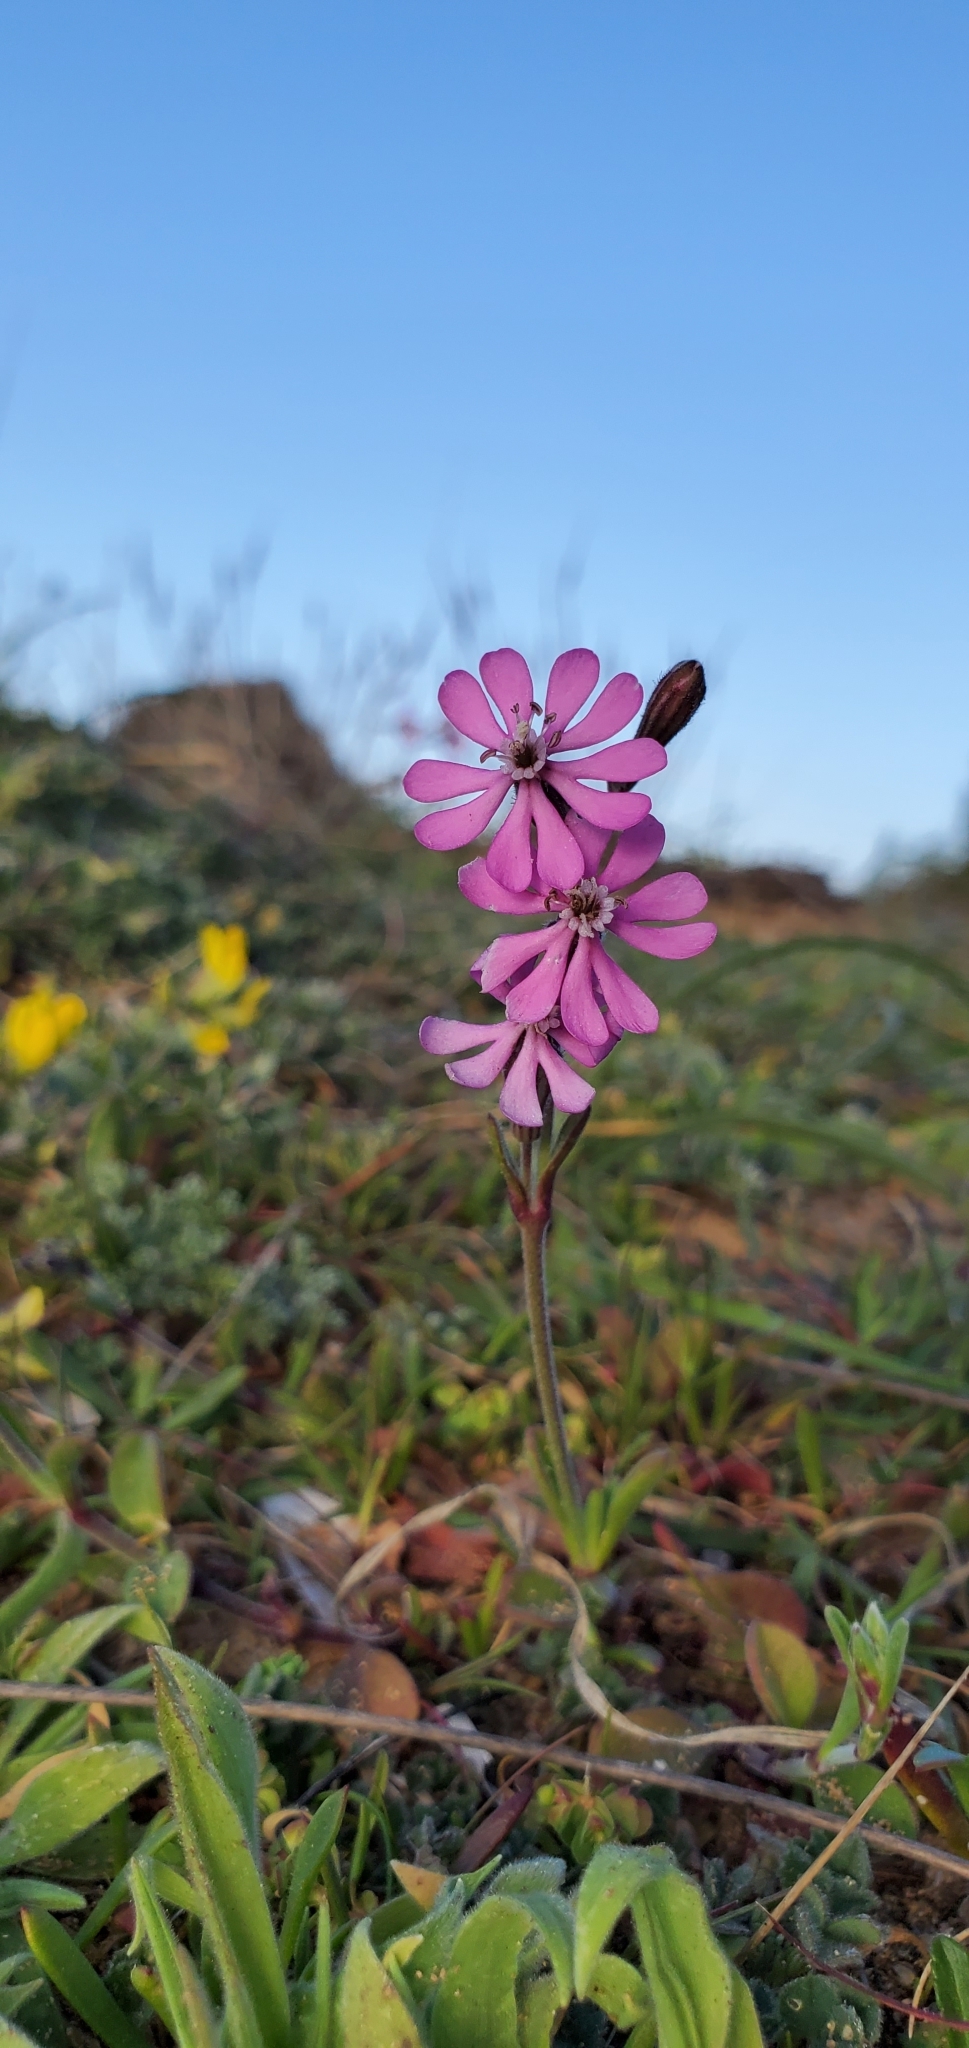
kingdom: Plantae
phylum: Tracheophyta
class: Magnoliopsida
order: Caryophyllales
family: Caryophyllaceae
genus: Silene
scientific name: Silene colorata
